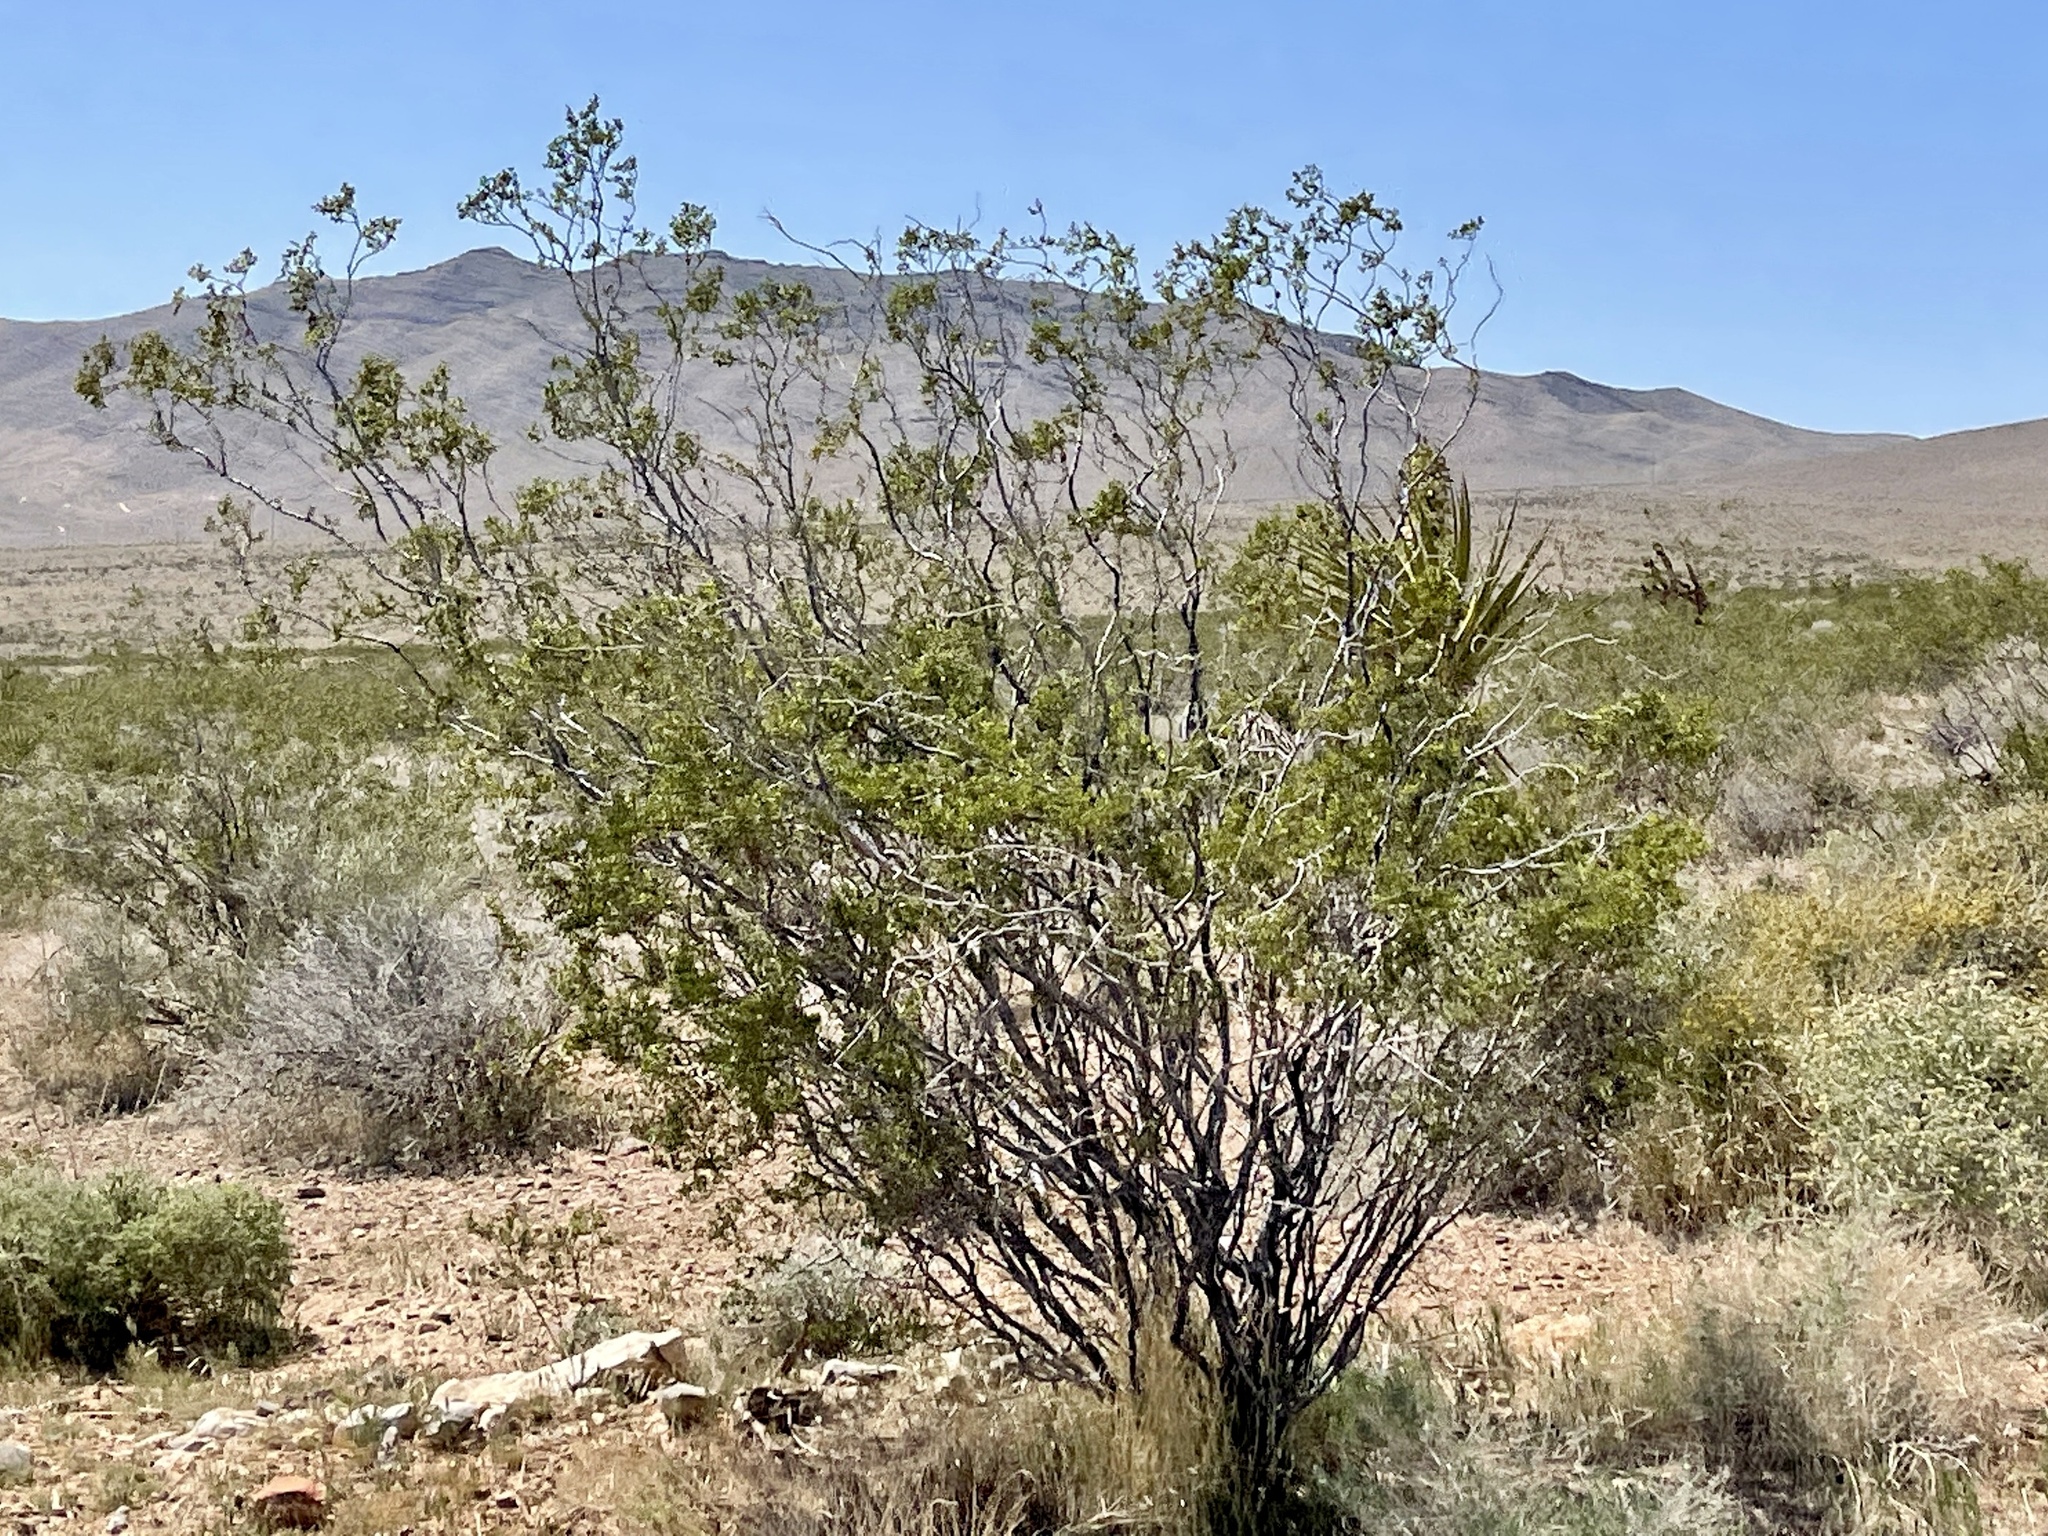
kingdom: Plantae
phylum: Tracheophyta
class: Magnoliopsida
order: Zygophyllales
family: Zygophyllaceae
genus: Larrea
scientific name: Larrea tridentata
